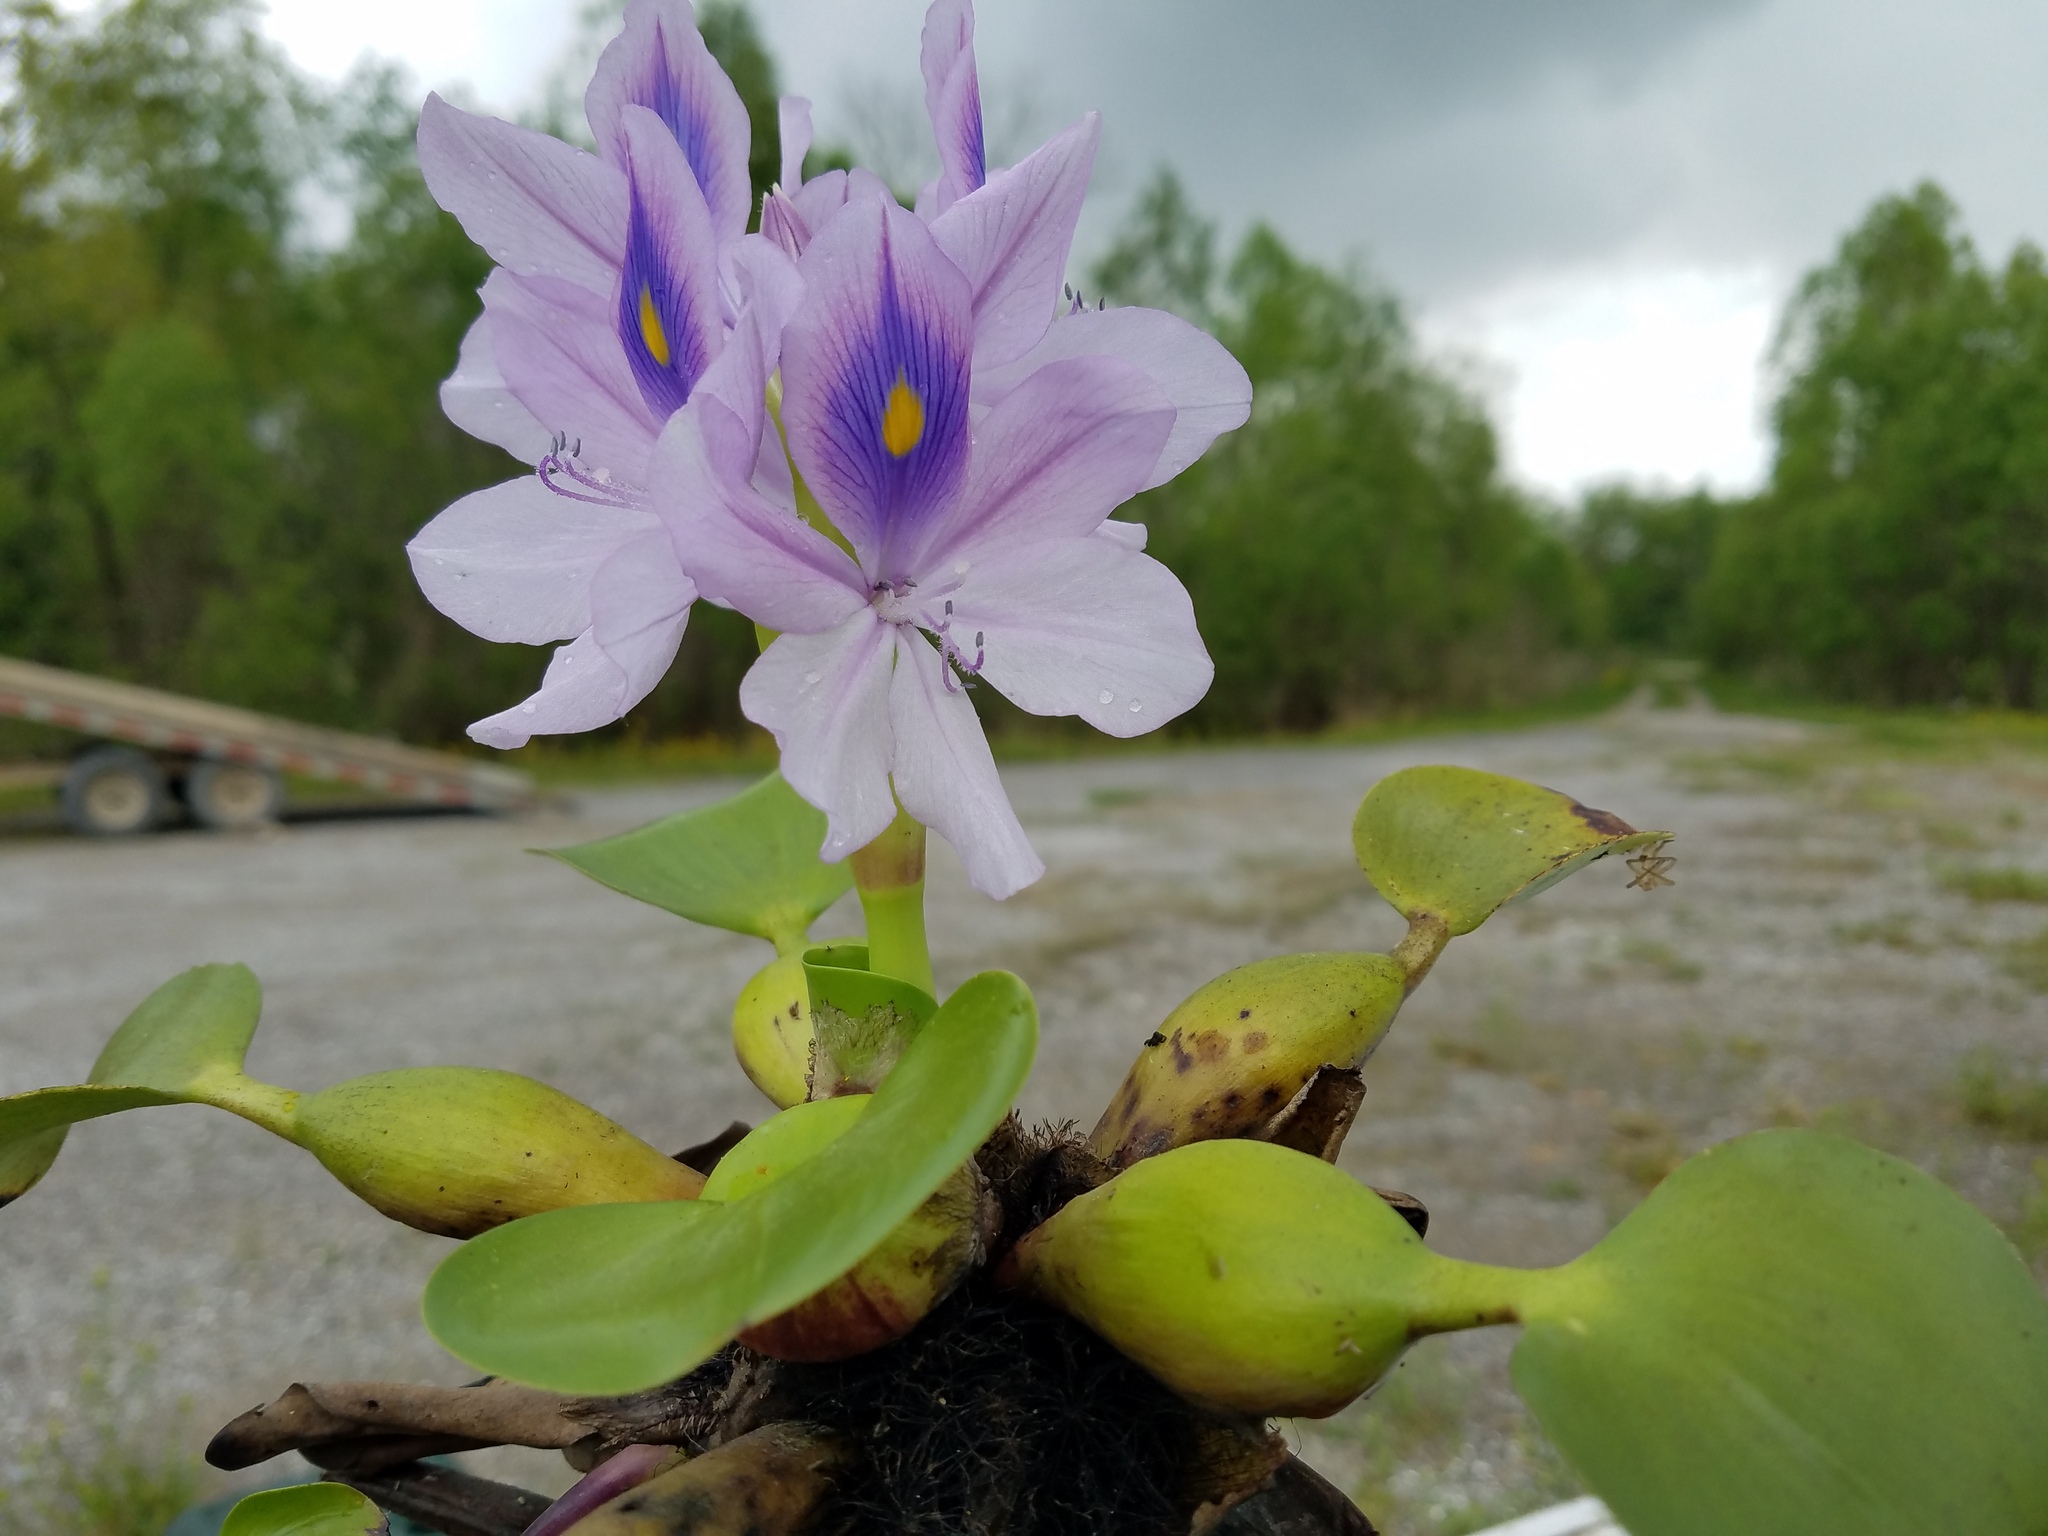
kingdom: Plantae
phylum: Tracheophyta
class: Liliopsida
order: Commelinales
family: Pontederiaceae
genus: Pontederia
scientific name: Pontederia crassipes
